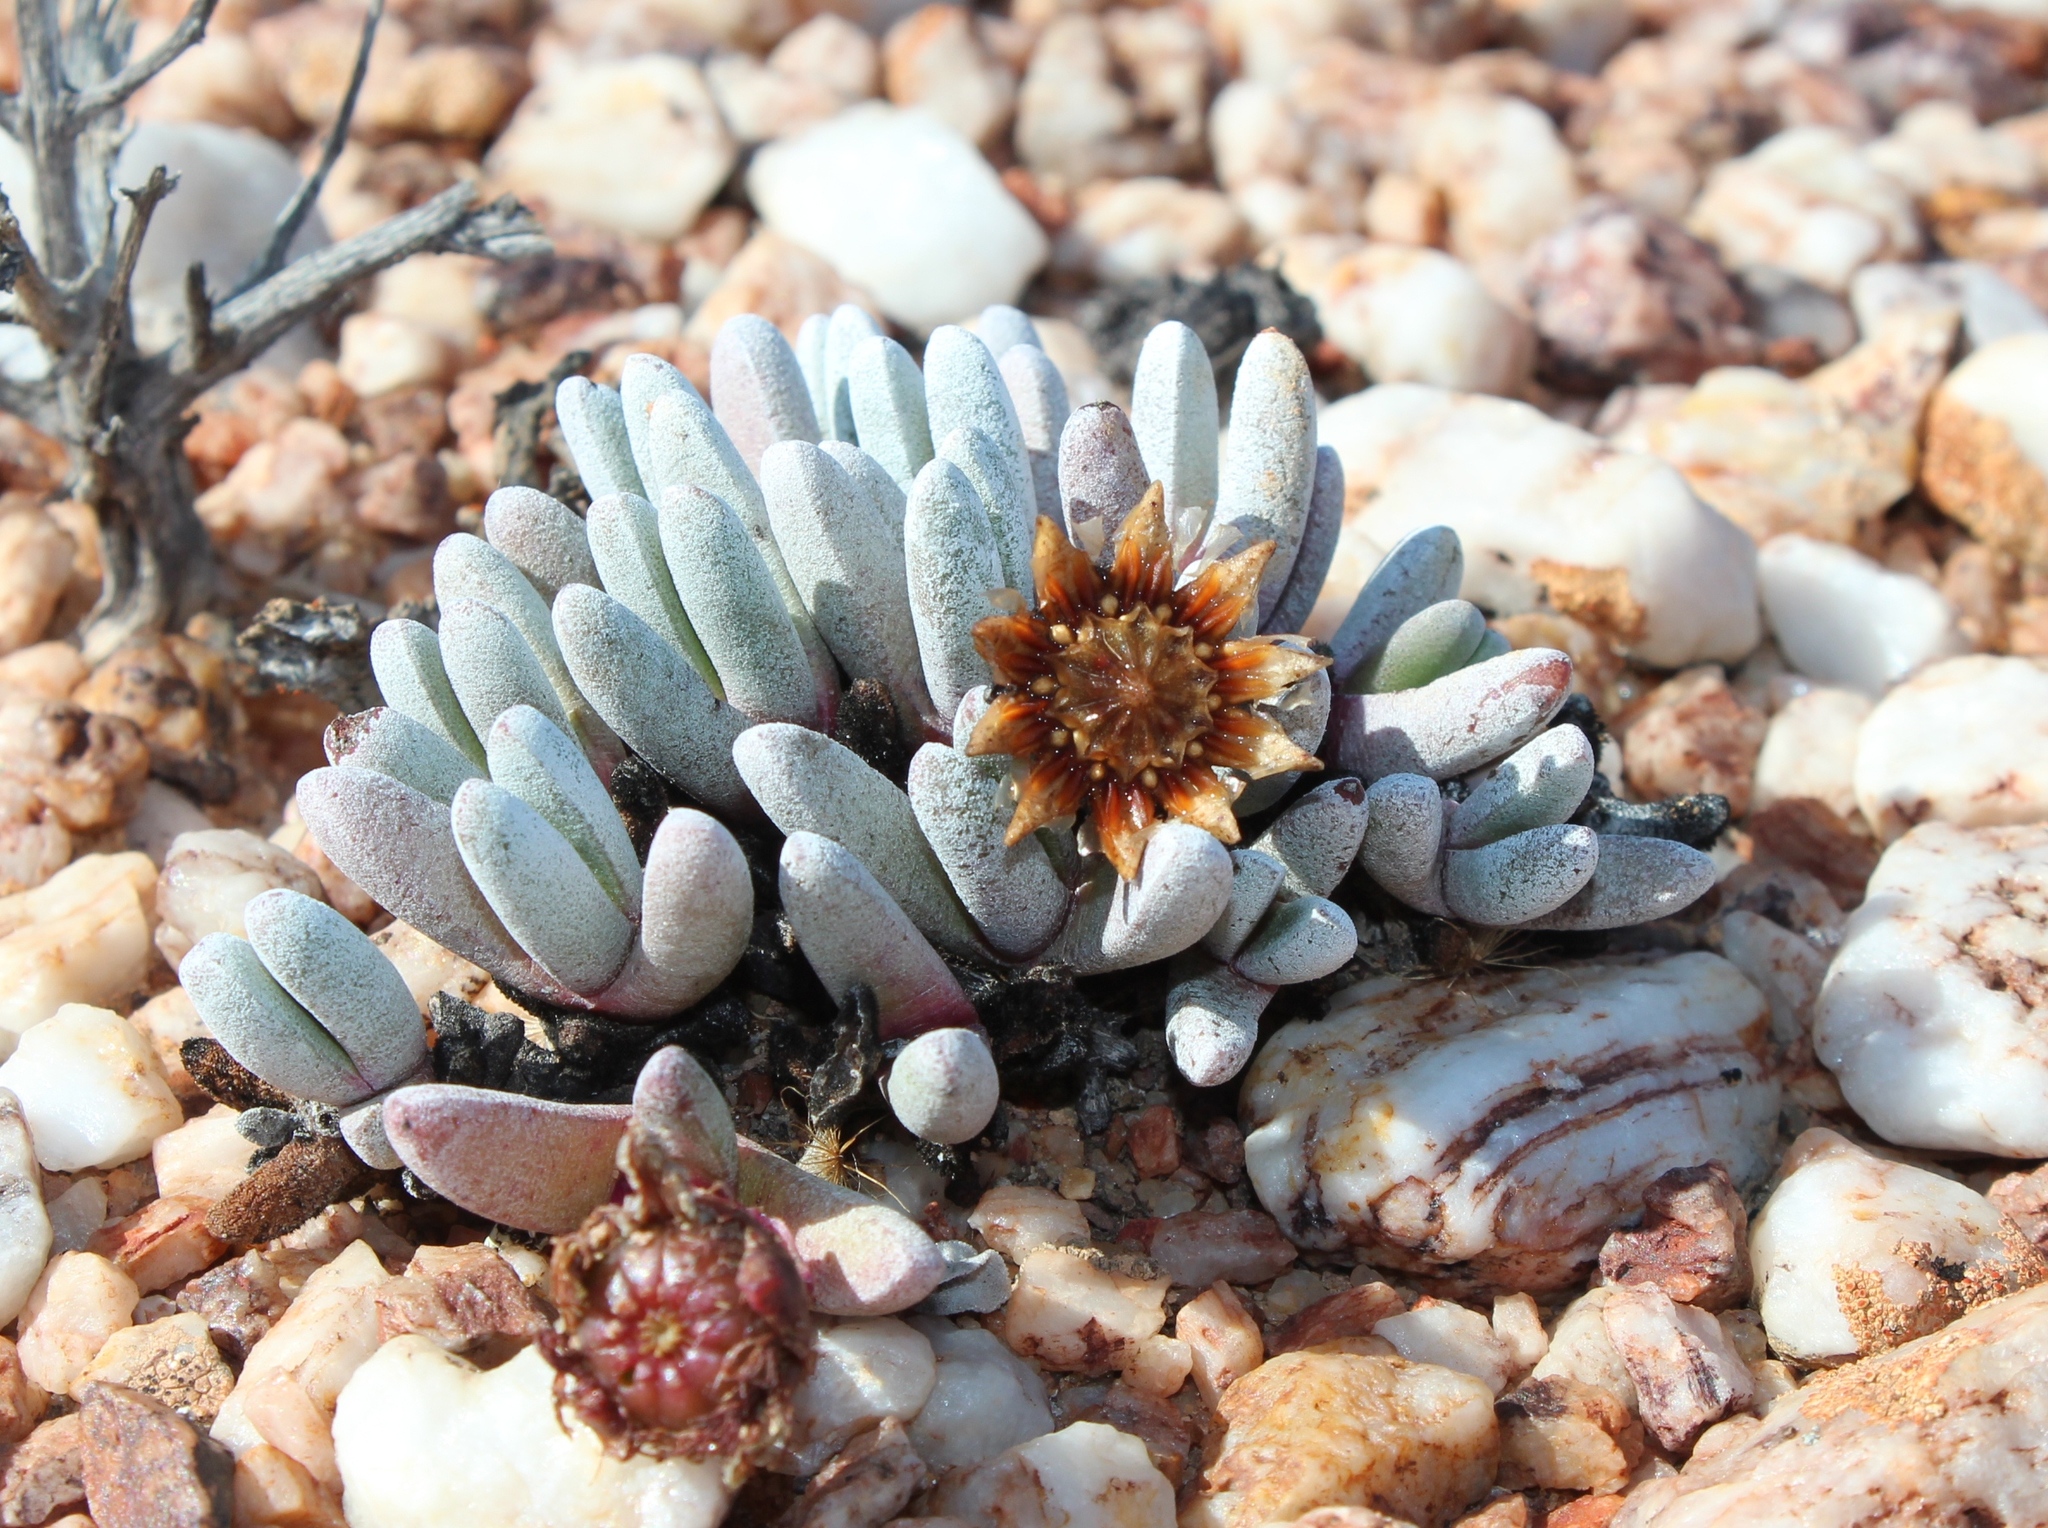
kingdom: Plantae
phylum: Tracheophyta
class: Magnoliopsida
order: Caryophyllales
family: Aizoaceae
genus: Cephalophyllum
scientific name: Cephalophyllum griseum
